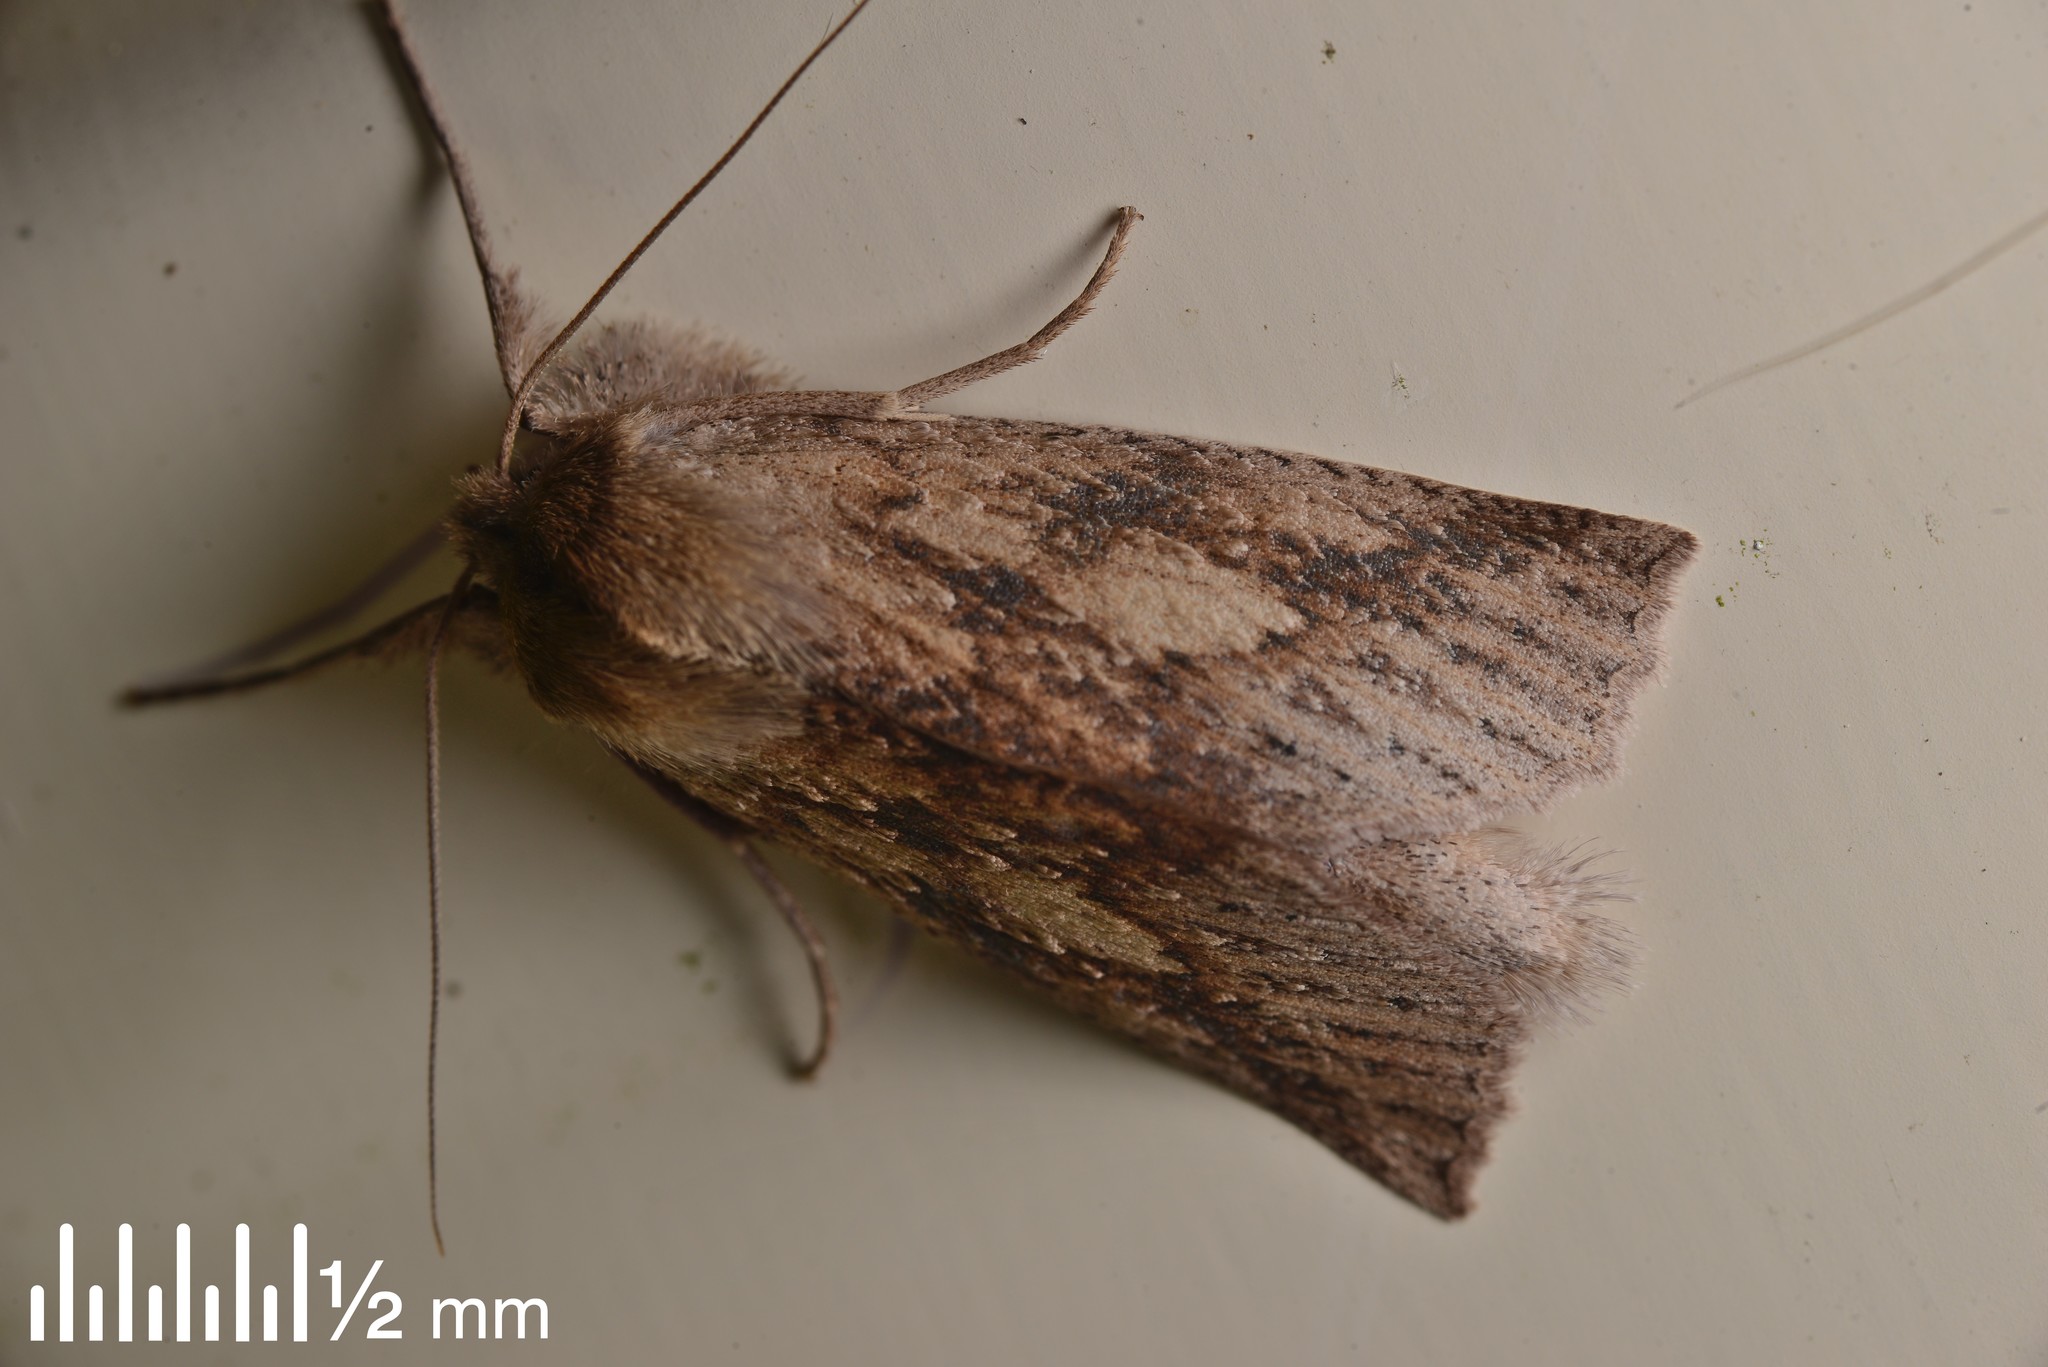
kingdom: Animalia
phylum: Arthropoda
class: Insecta
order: Lepidoptera
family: Geometridae
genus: Declana
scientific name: Declana leptomera
